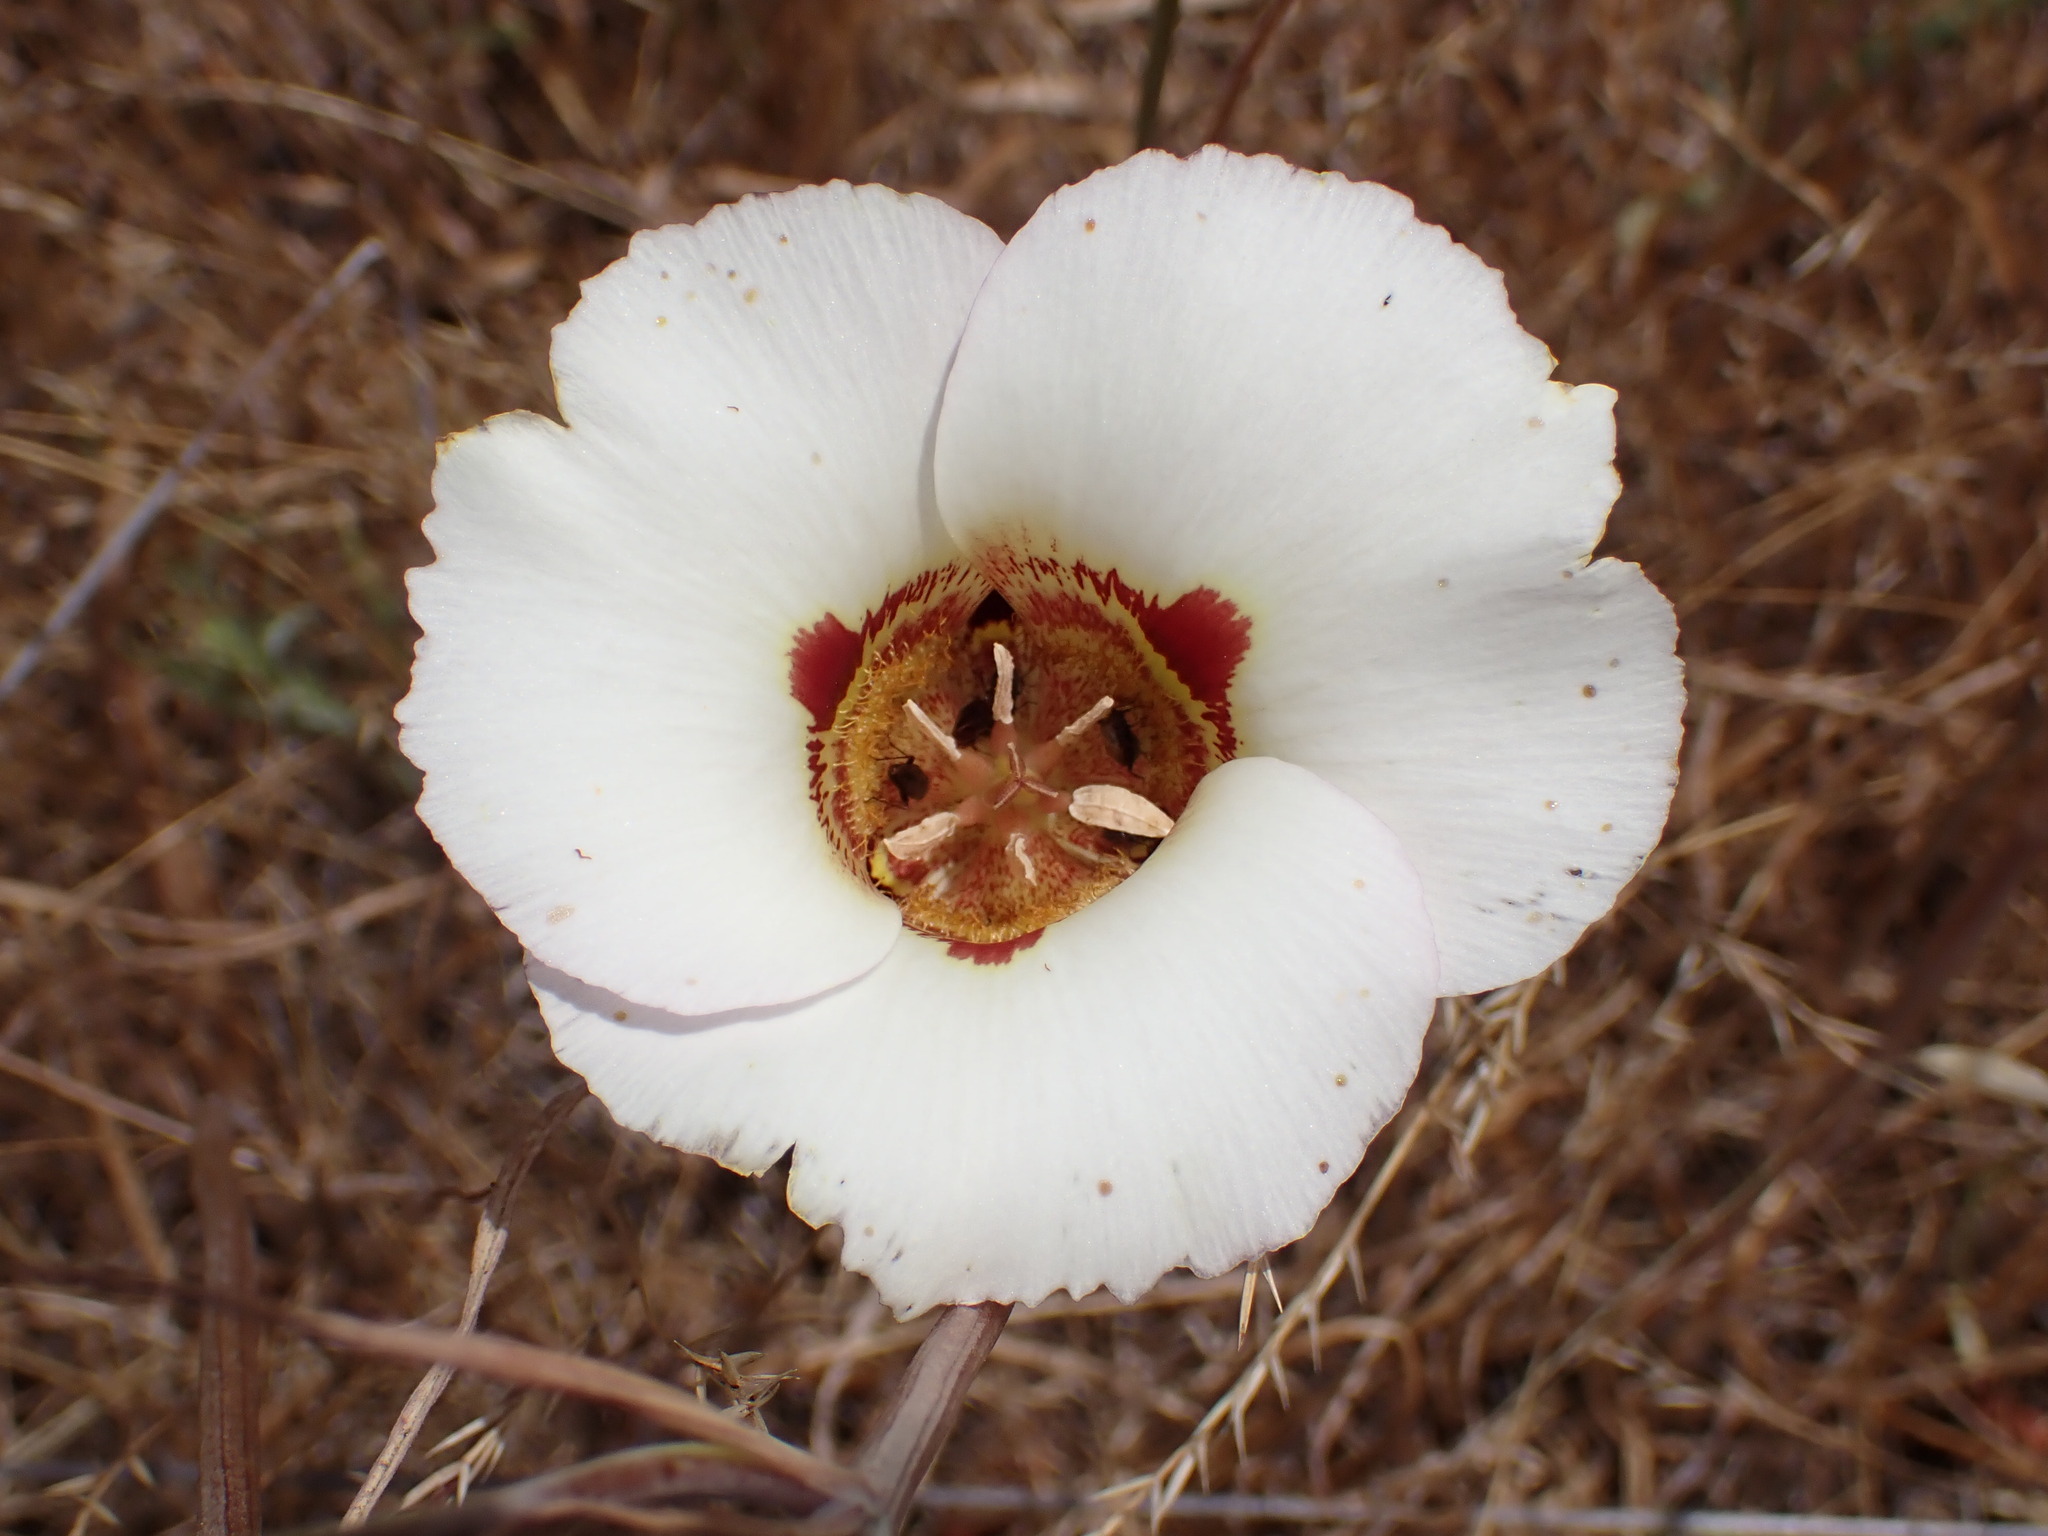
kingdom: Plantae
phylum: Tracheophyta
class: Liliopsida
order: Liliales
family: Liliaceae
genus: Calochortus
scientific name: Calochortus vestae
